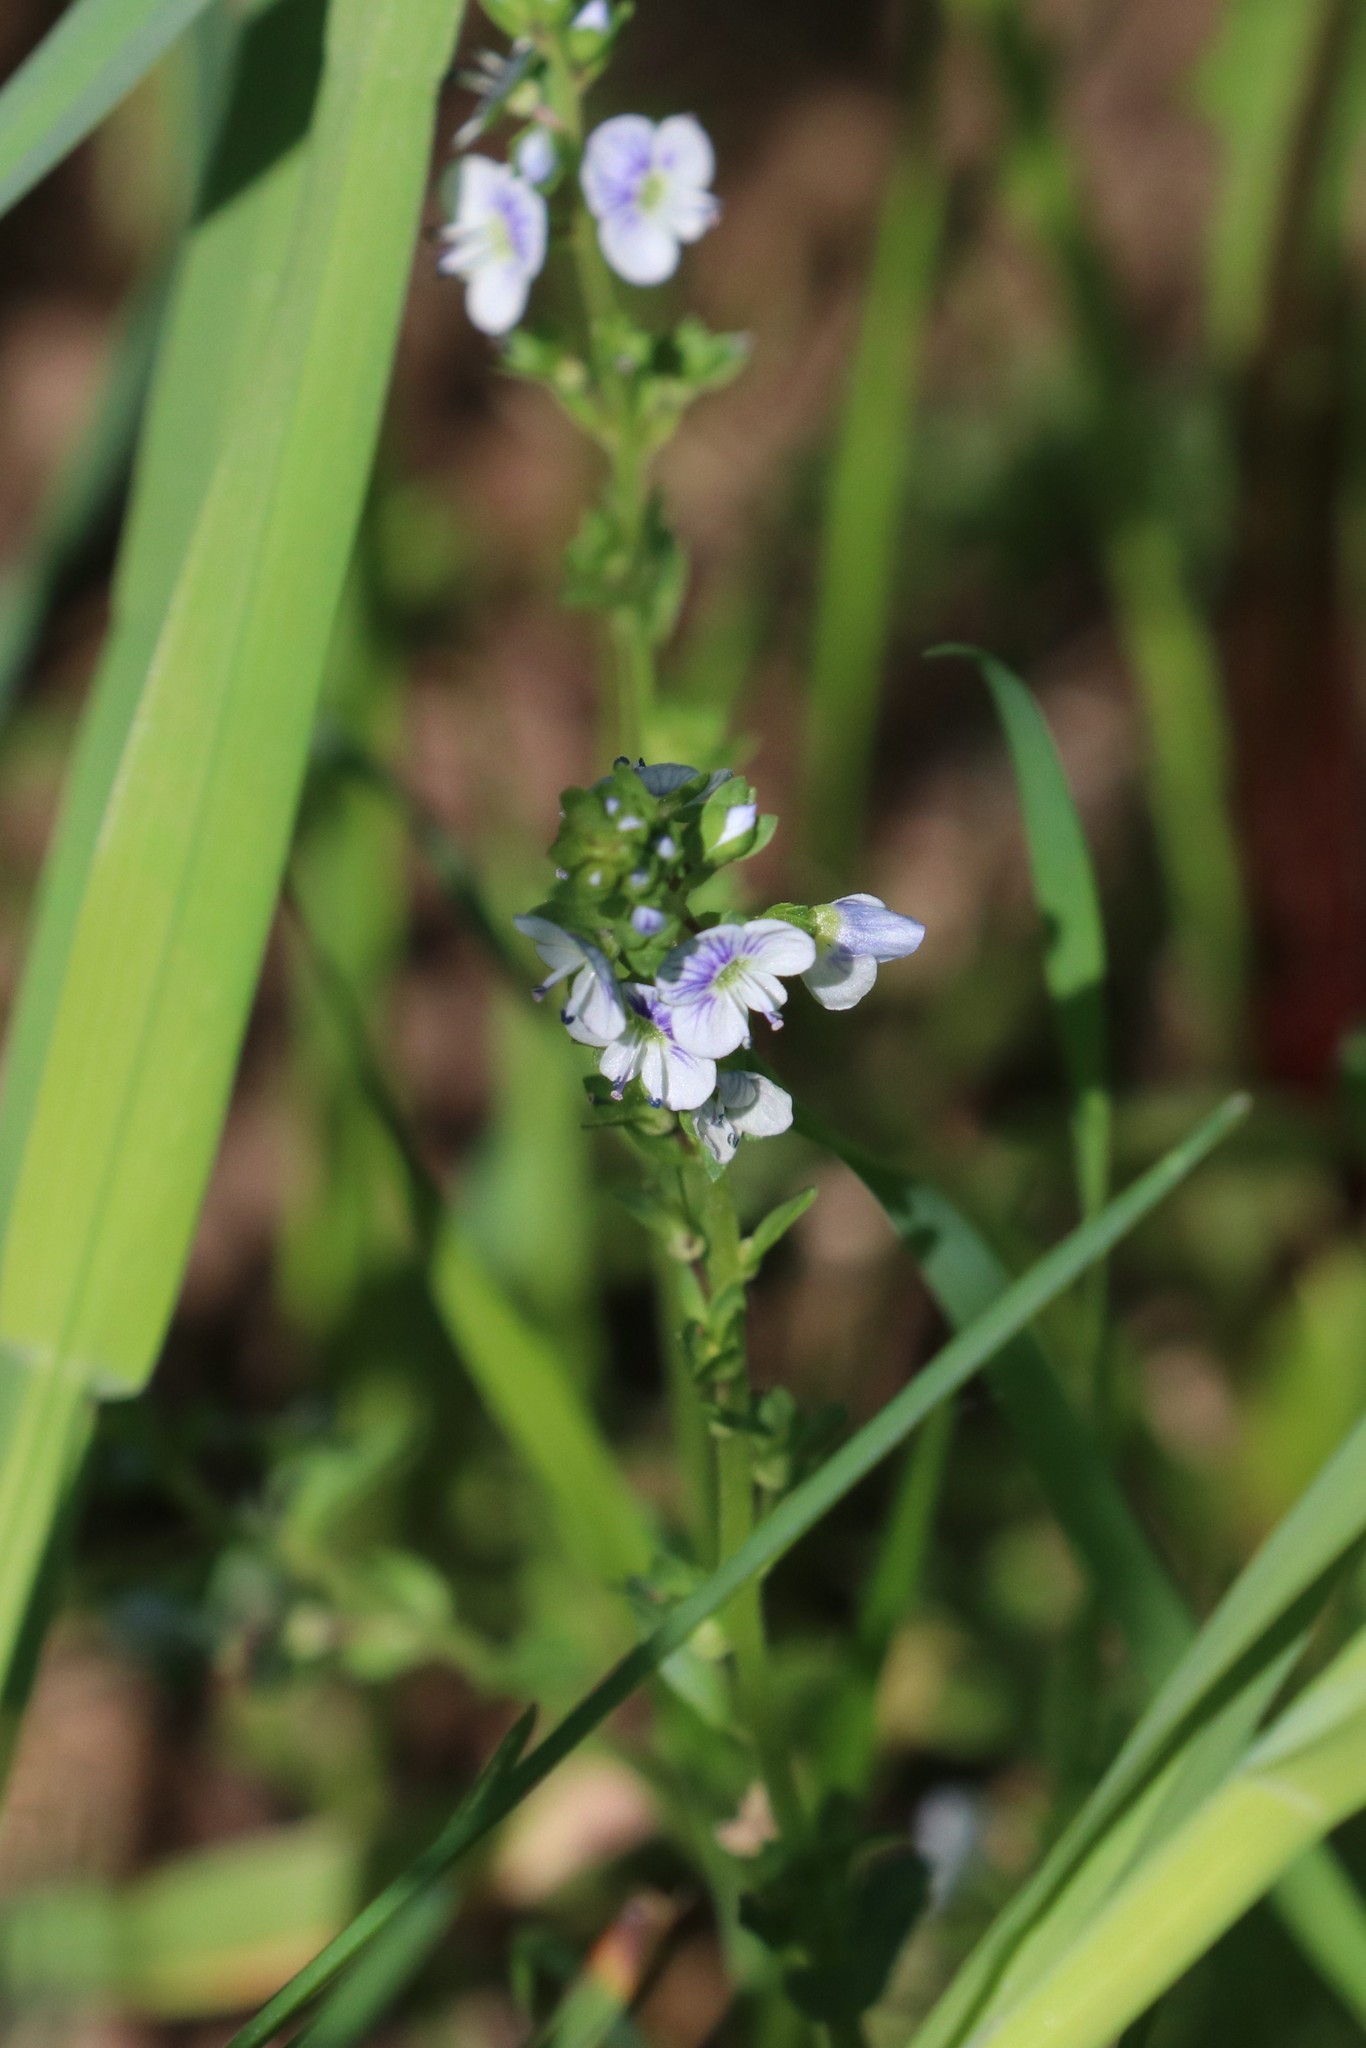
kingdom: Plantae
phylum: Tracheophyta
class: Magnoliopsida
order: Lamiales
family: Plantaginaceae
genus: Veronica
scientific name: Veronica serpyllifolia
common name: Thyme-leaved speedwell
